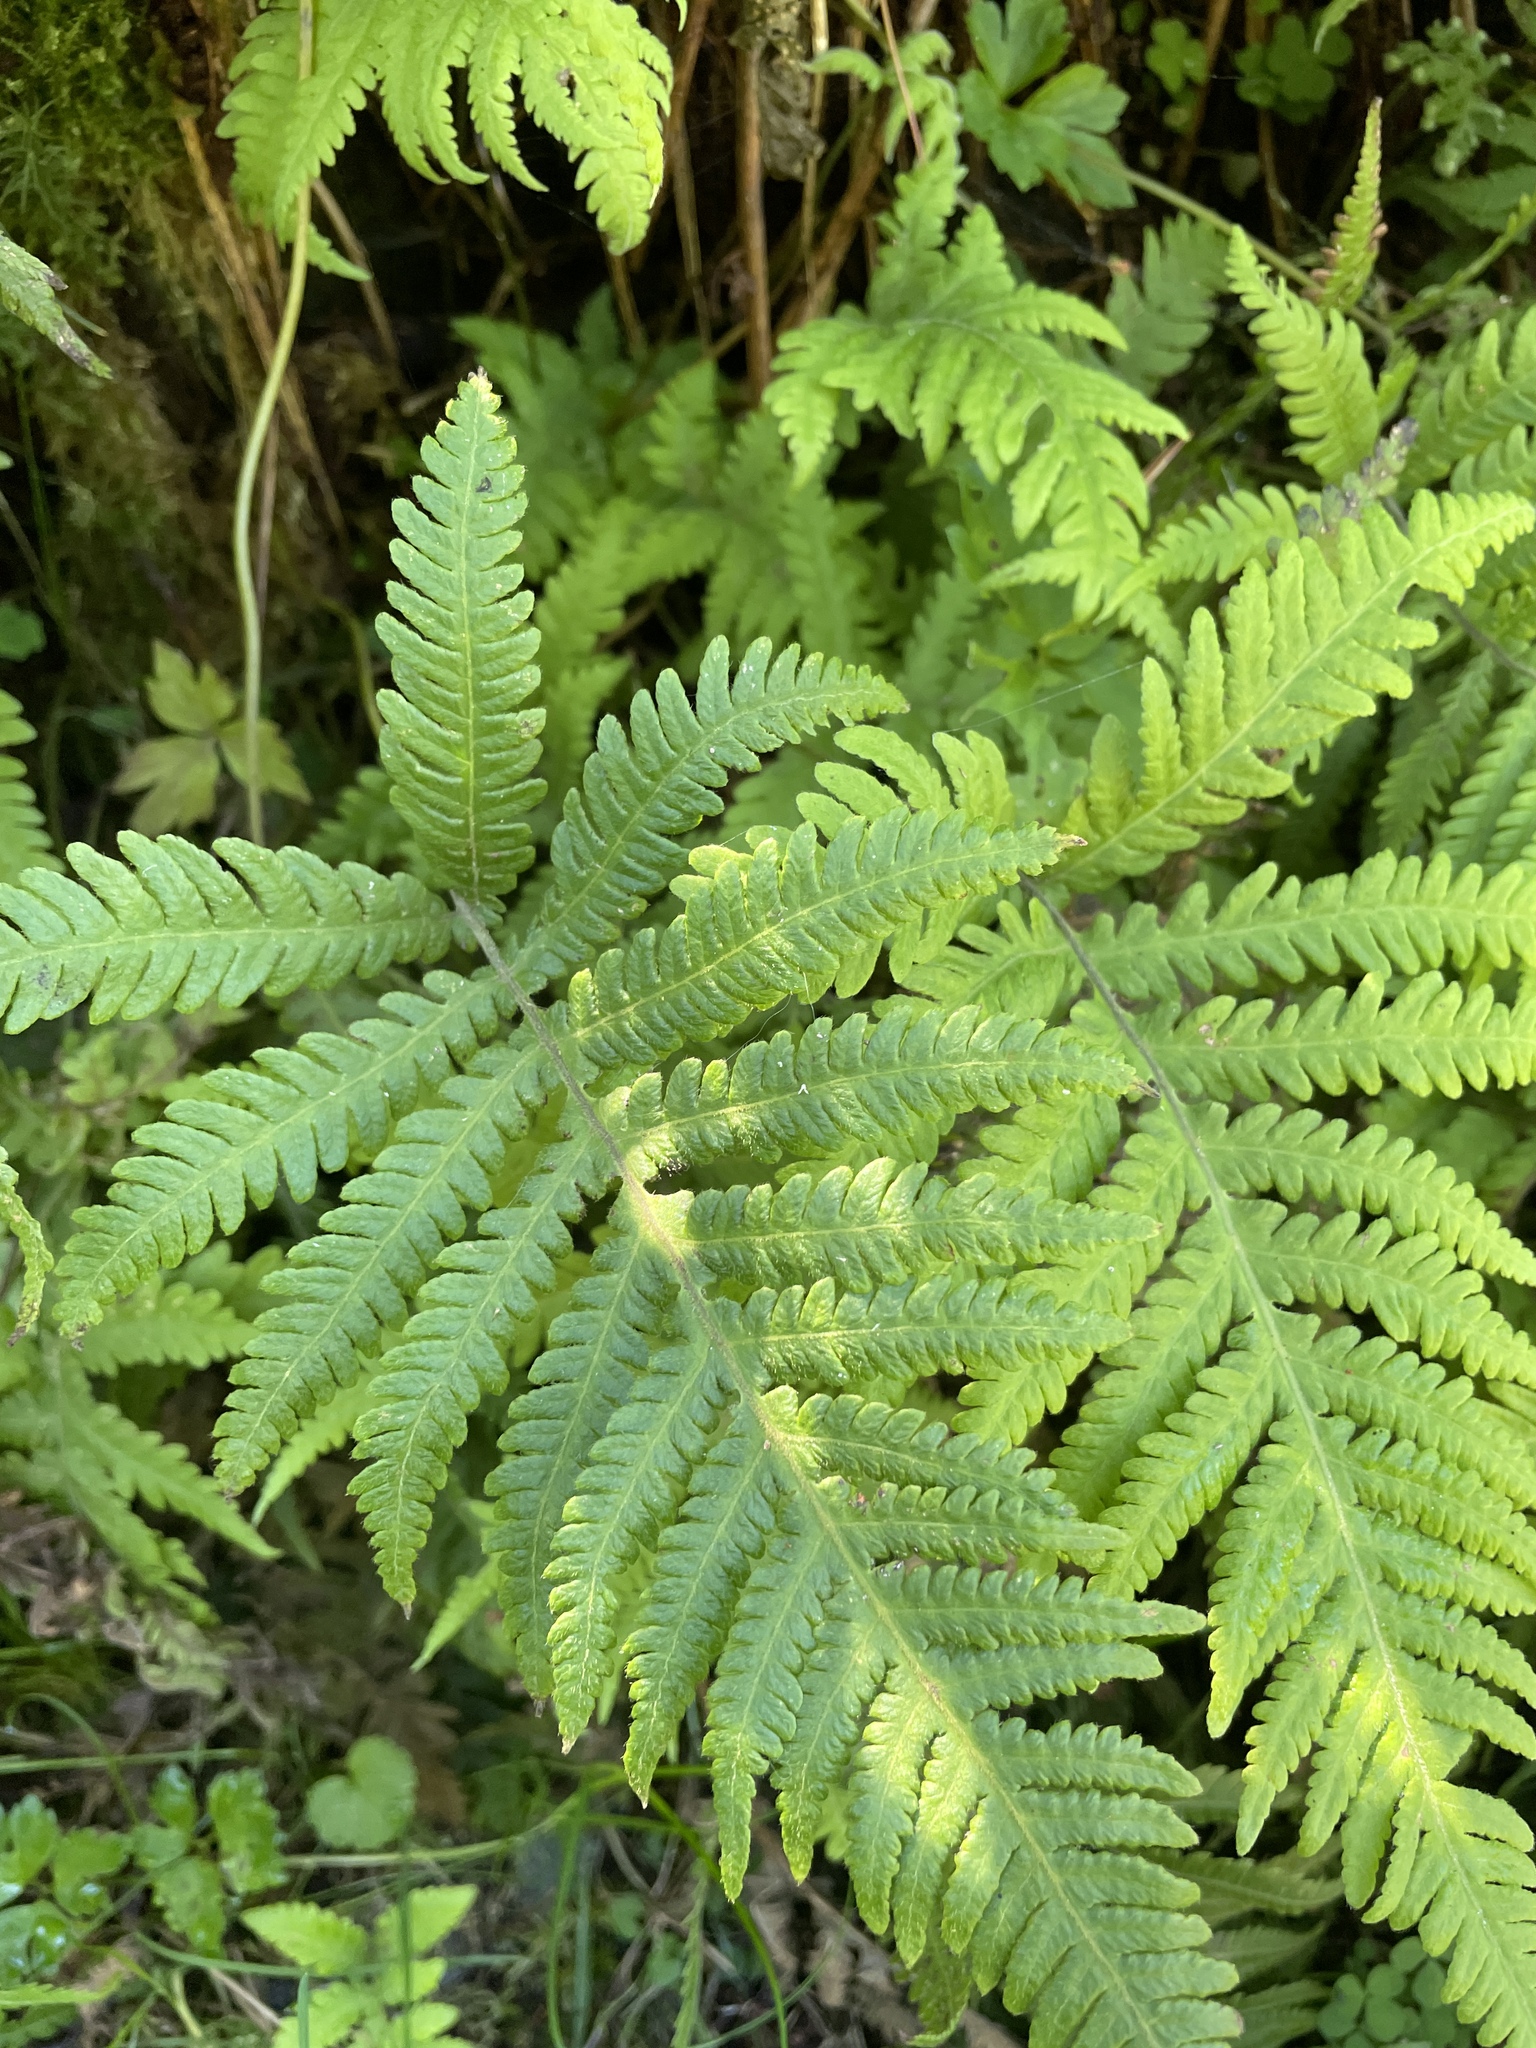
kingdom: Plantae
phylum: Tracheophyta
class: Polypodiopsida
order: Polypodiales
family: Thelypteridaceae
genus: Phegopteris
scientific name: Phegopteris connectilis
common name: Beech fern
